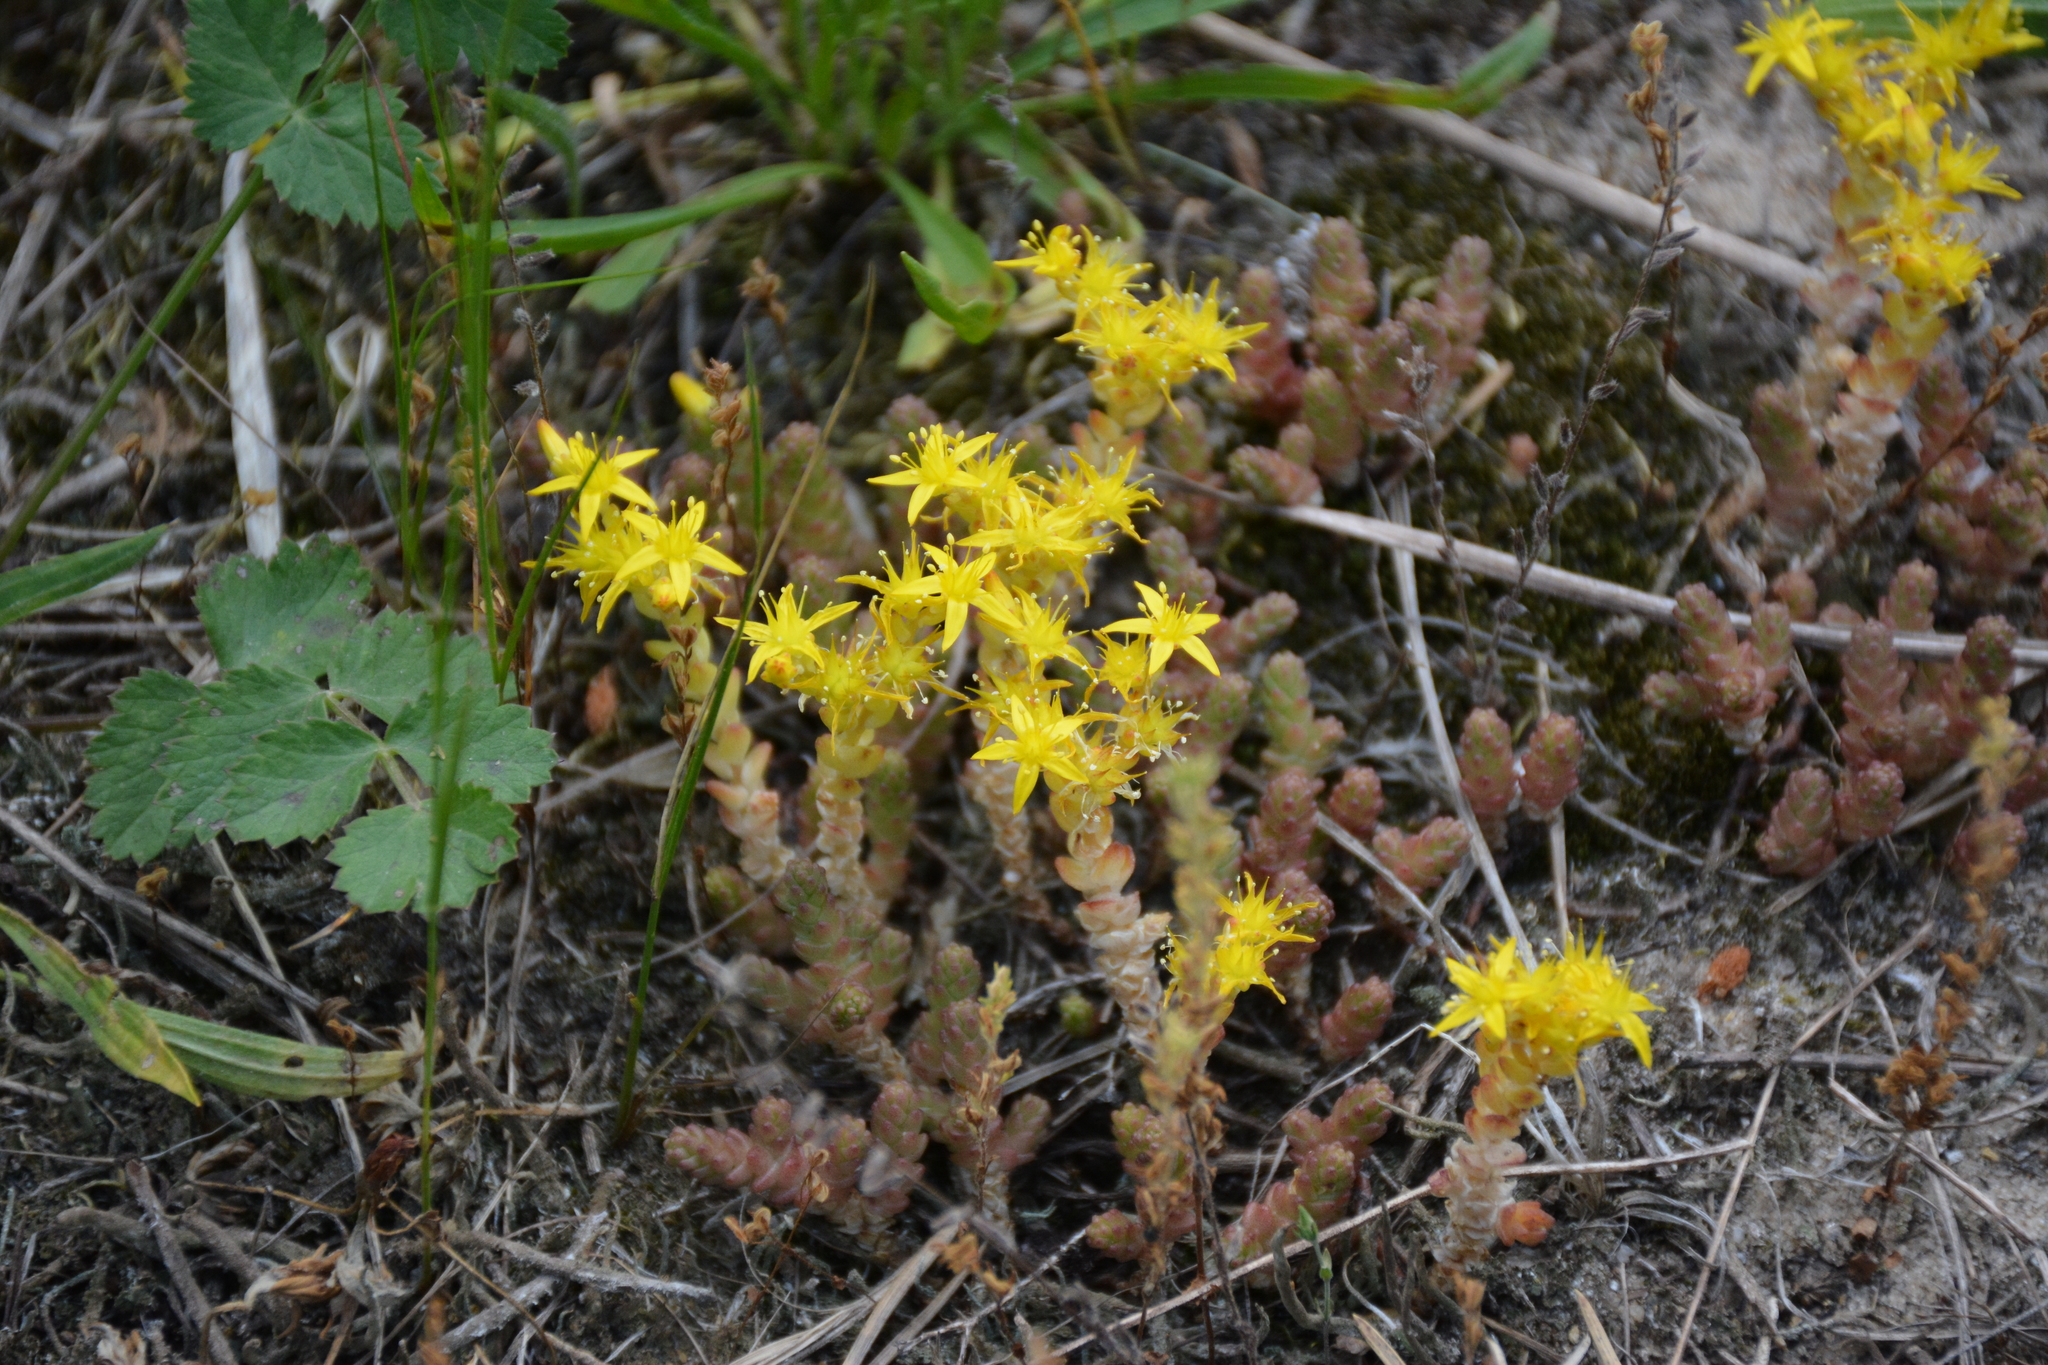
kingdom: Plantae
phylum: Tracheophyta
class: Magnoliopsida
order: Saxifragales
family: Crassulaceae
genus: Sedum
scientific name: Sedum acre
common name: Biting stonecrop
